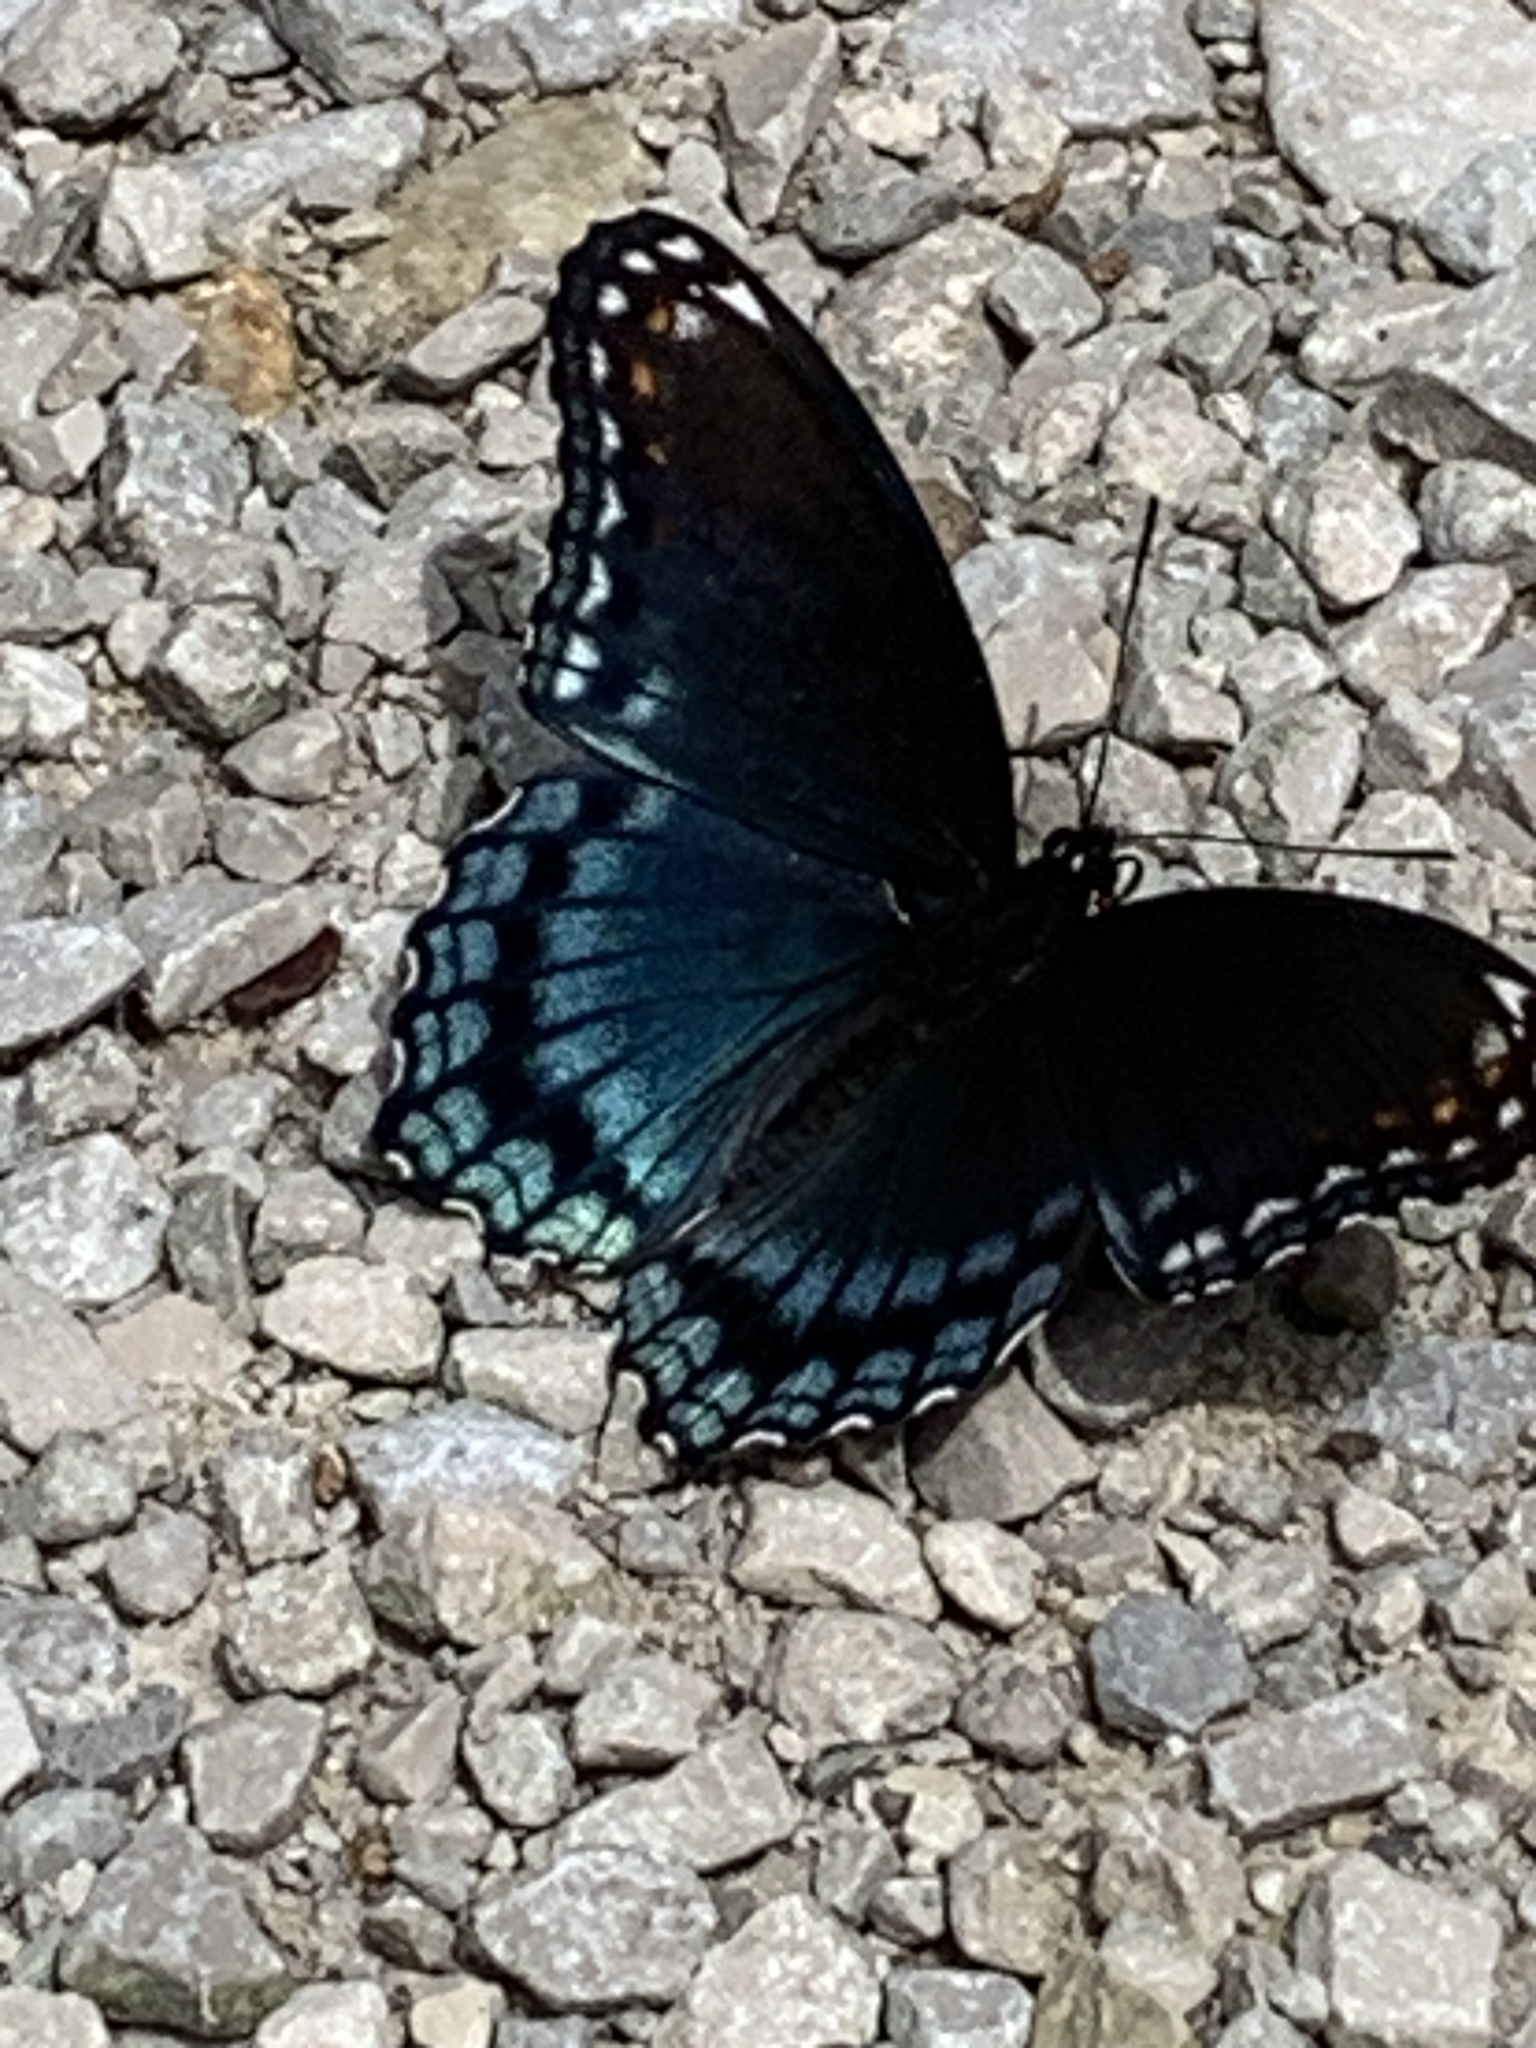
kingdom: Animalia
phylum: Arthropoda
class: Insecta
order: Lepidoptera
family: Nymphalidae
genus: Limenitis
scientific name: Limenitis arthemis
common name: Red-spotted admiral
